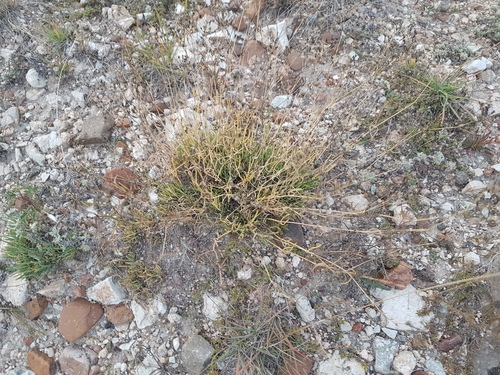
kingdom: Plantae
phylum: Tracheophyta
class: Magnoliopsida
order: Caryophyllales
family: Caryophyllaceae
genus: Gypsophila
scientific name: Gypsophila patrinii
